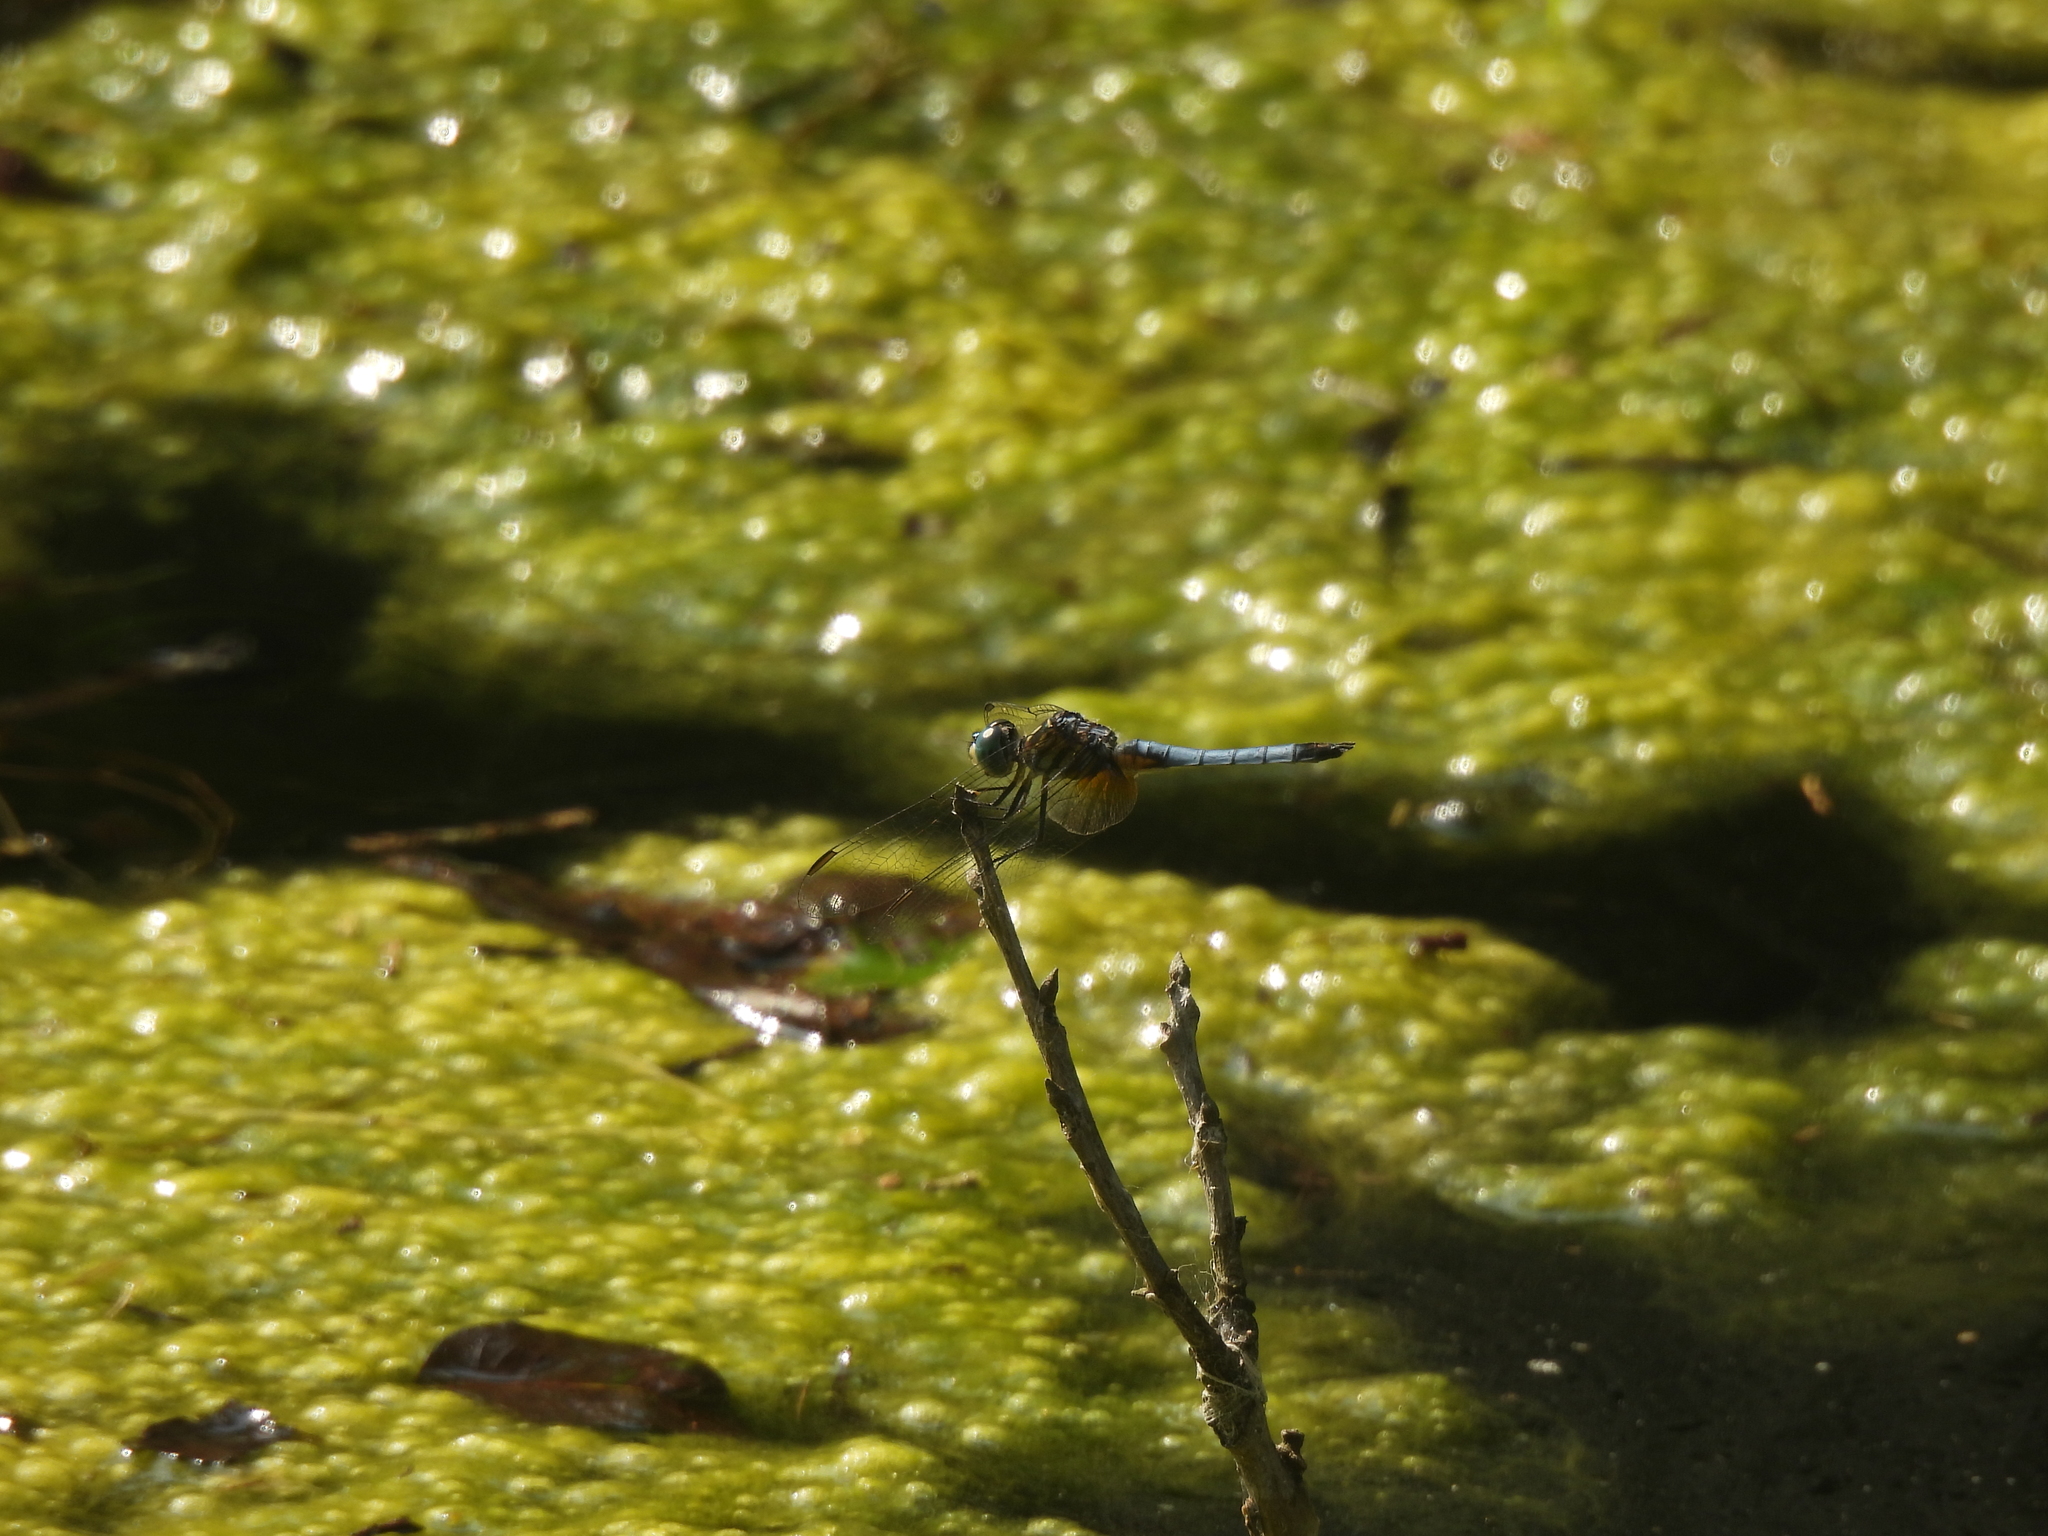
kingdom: Animalia
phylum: Arthropoda
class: Insecta
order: Odonata
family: Libellulidae
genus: Pachydiplax
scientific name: Pachydiplax longipennis
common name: Blue dasher
